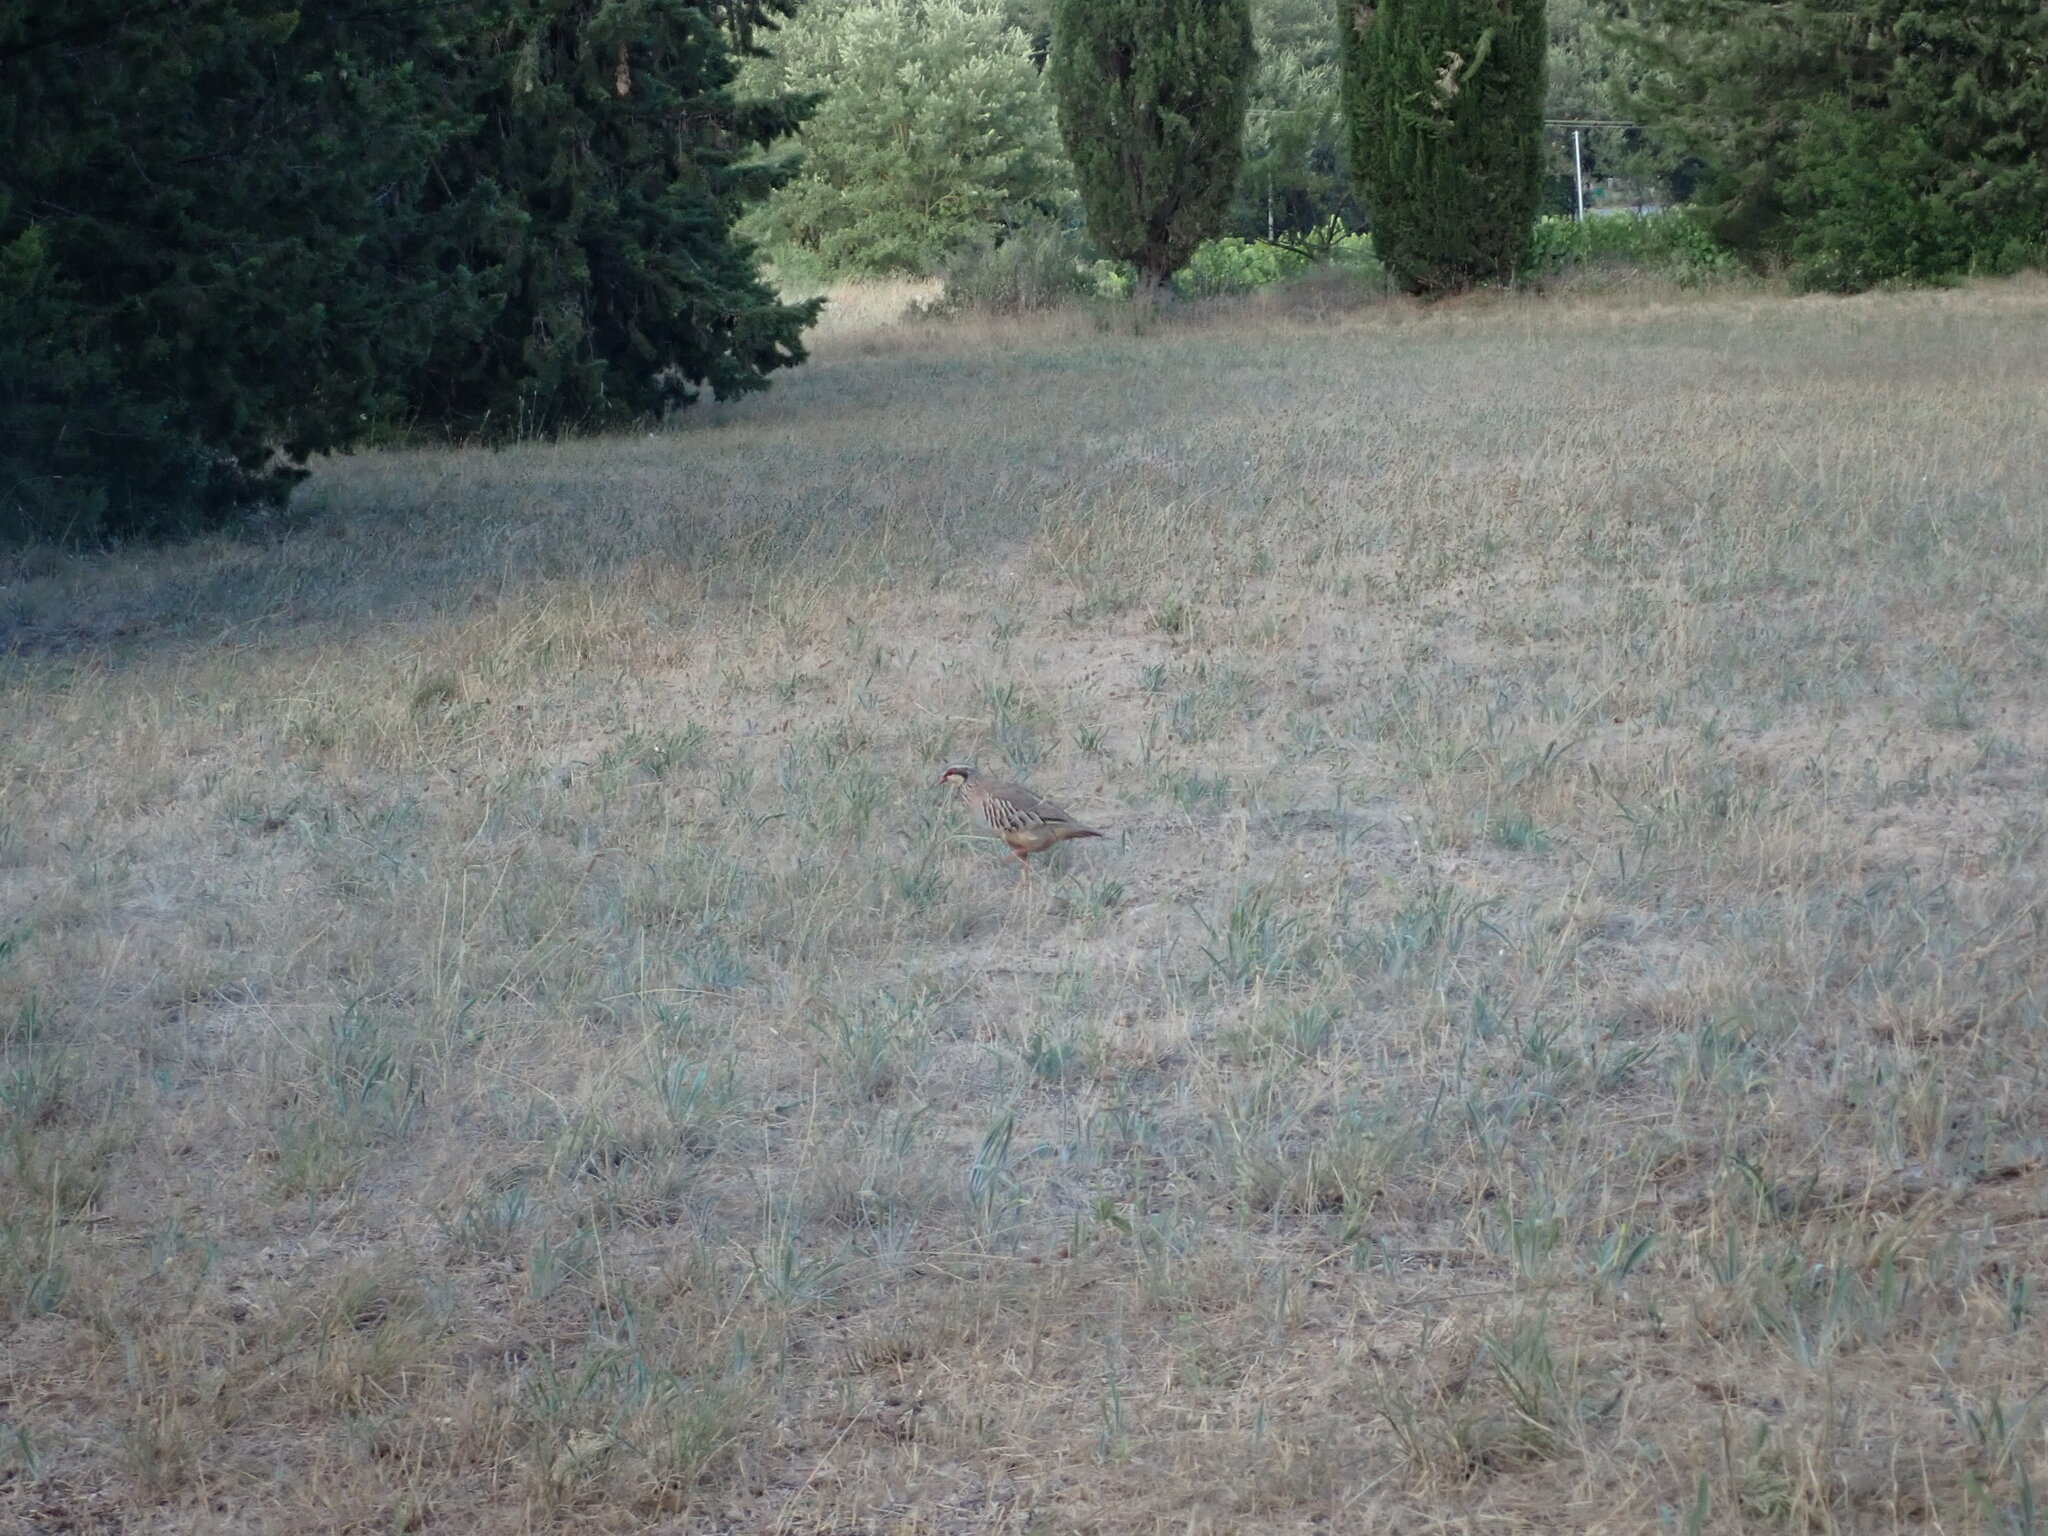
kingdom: Animalia
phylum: Chordata
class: Aves
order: Galliformes
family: Phasianidae
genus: Alectoris
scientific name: Alectoris rufa
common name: Red-legged partridge
